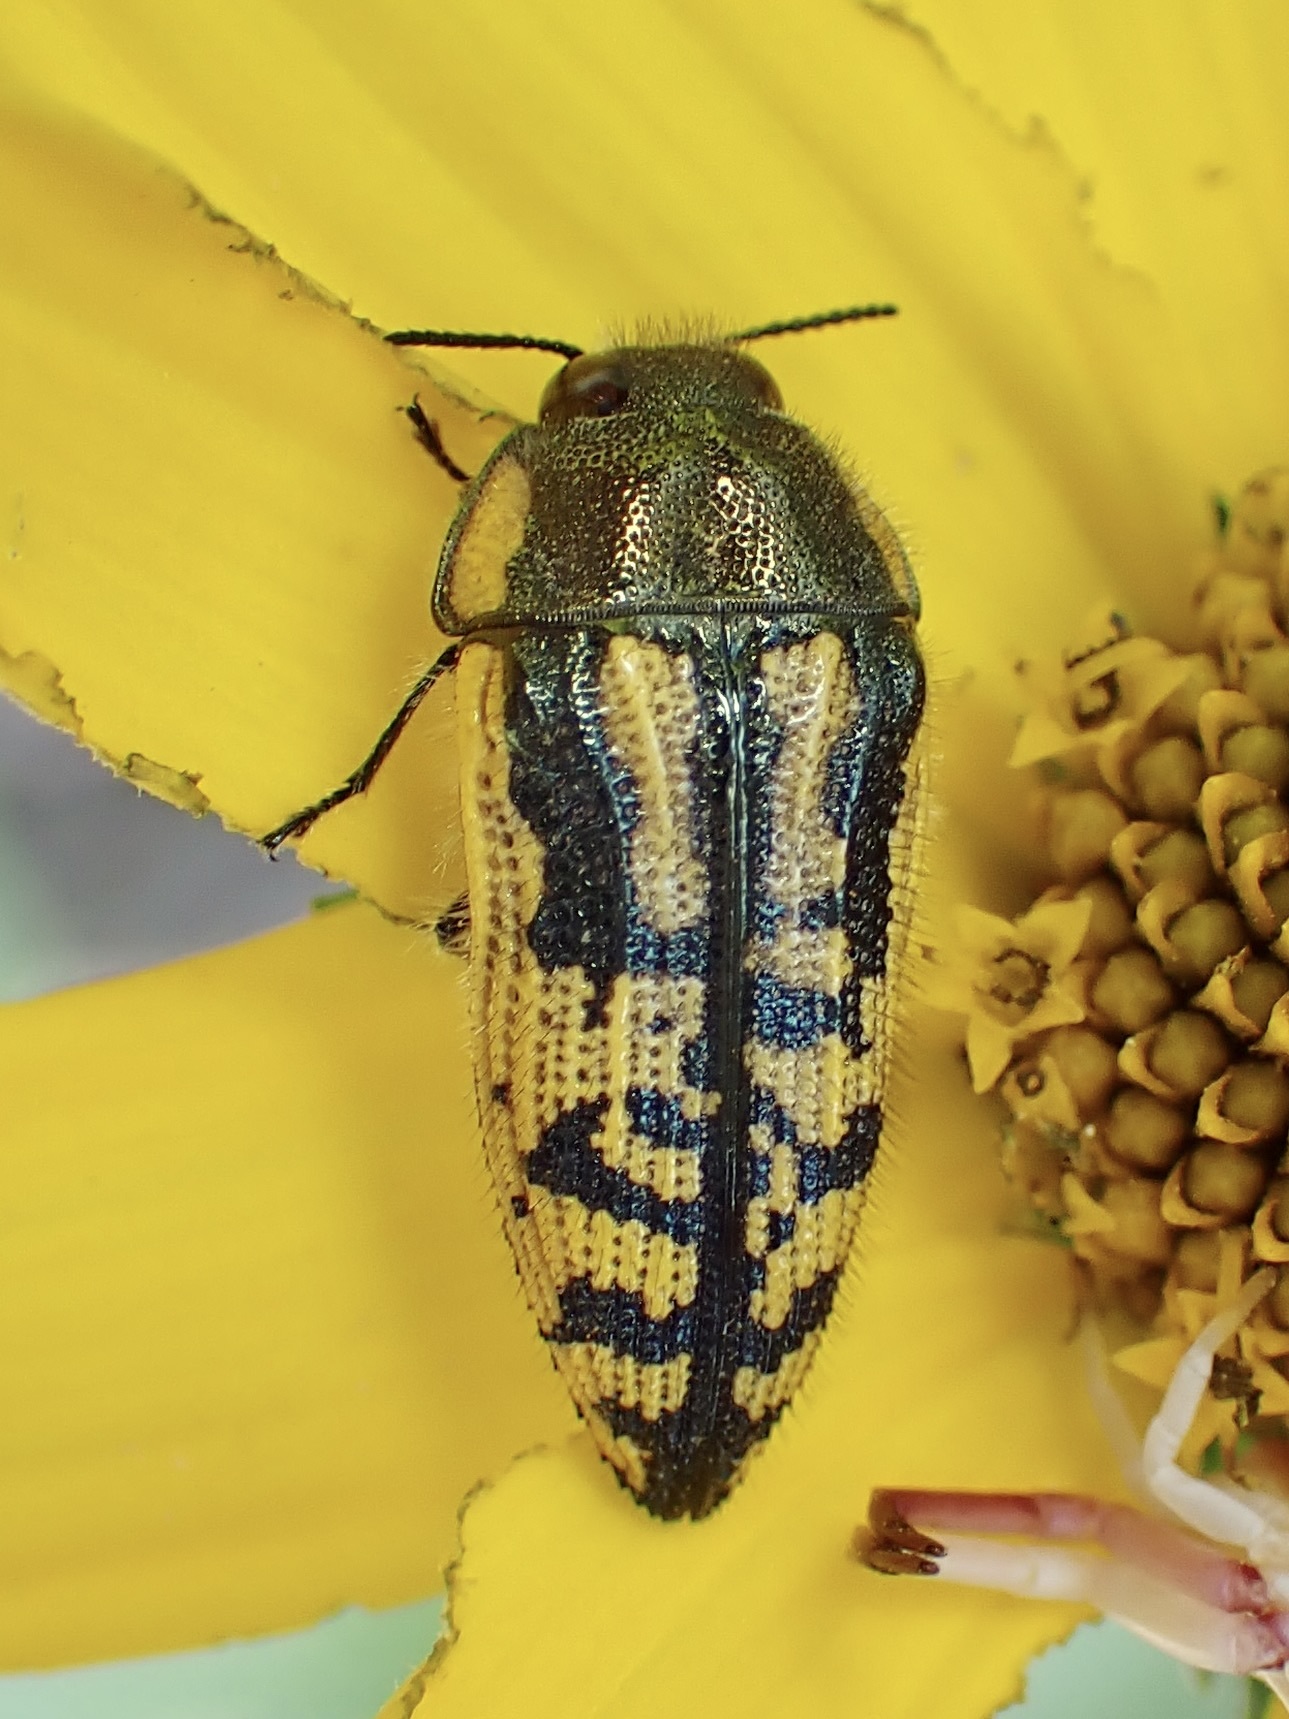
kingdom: Animalia
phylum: Arthropoda
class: Insecta
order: Coleoptera
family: Buprestidae
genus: Acmaeodera
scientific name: Acmaeodera amplicollis
